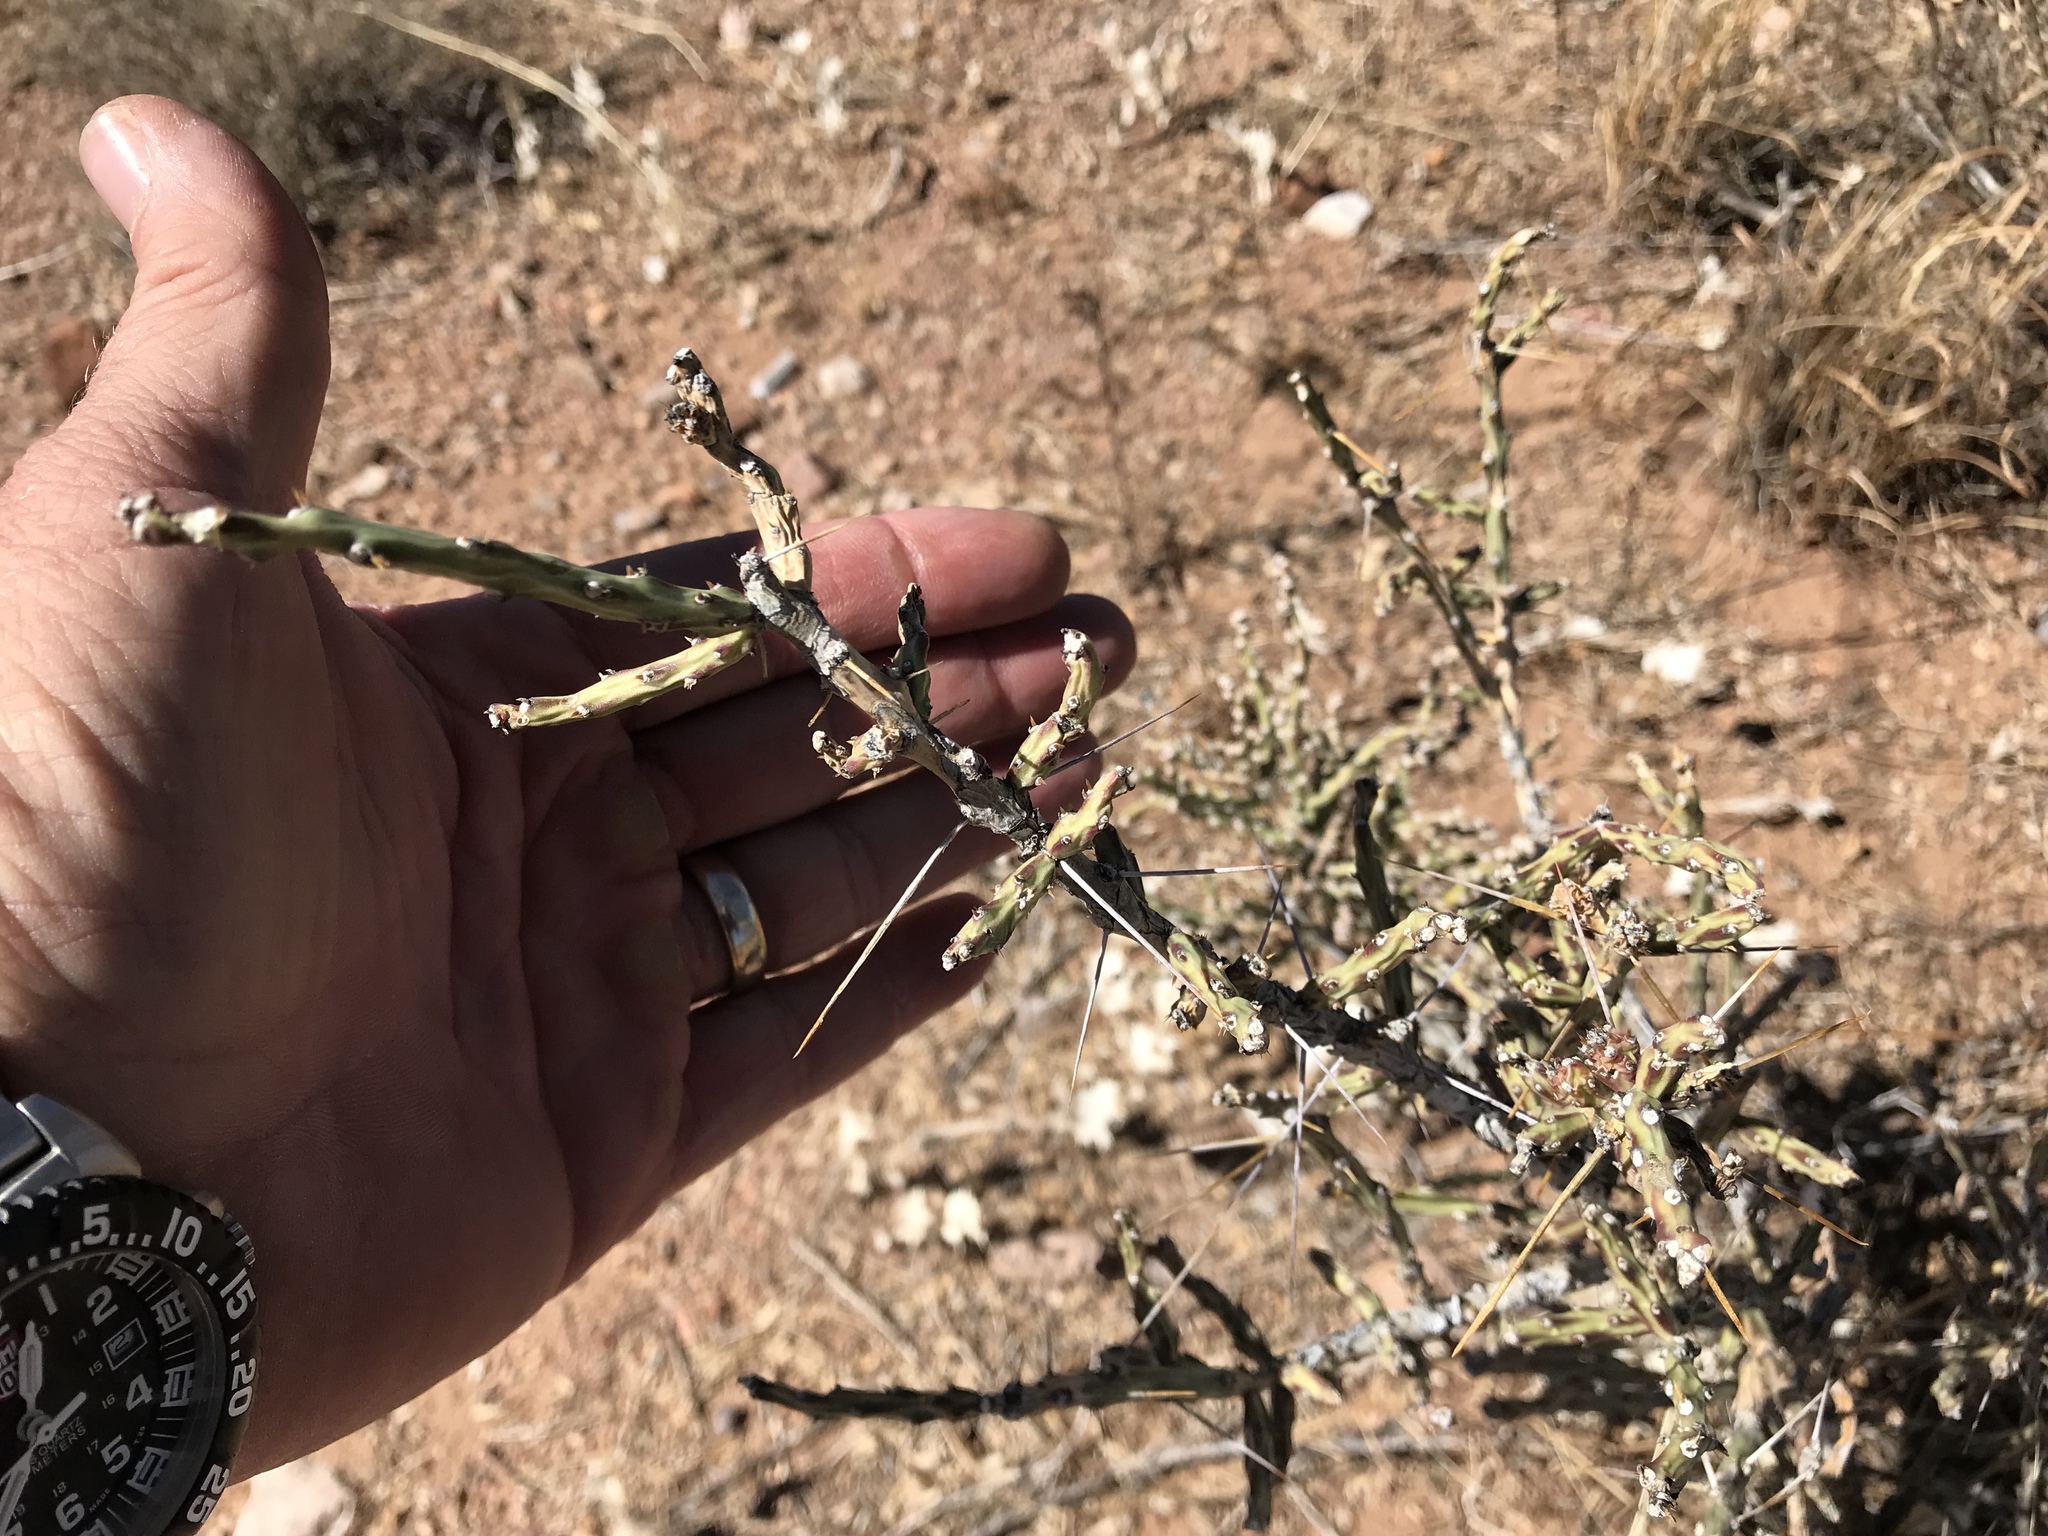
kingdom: Plantae
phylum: Tracheophyta
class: Magnoliopsida
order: Caryophyllales
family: Cactaceae
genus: Cylindropuntia
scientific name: Cylindropuntia leptocaulis
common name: Christmas cactus
